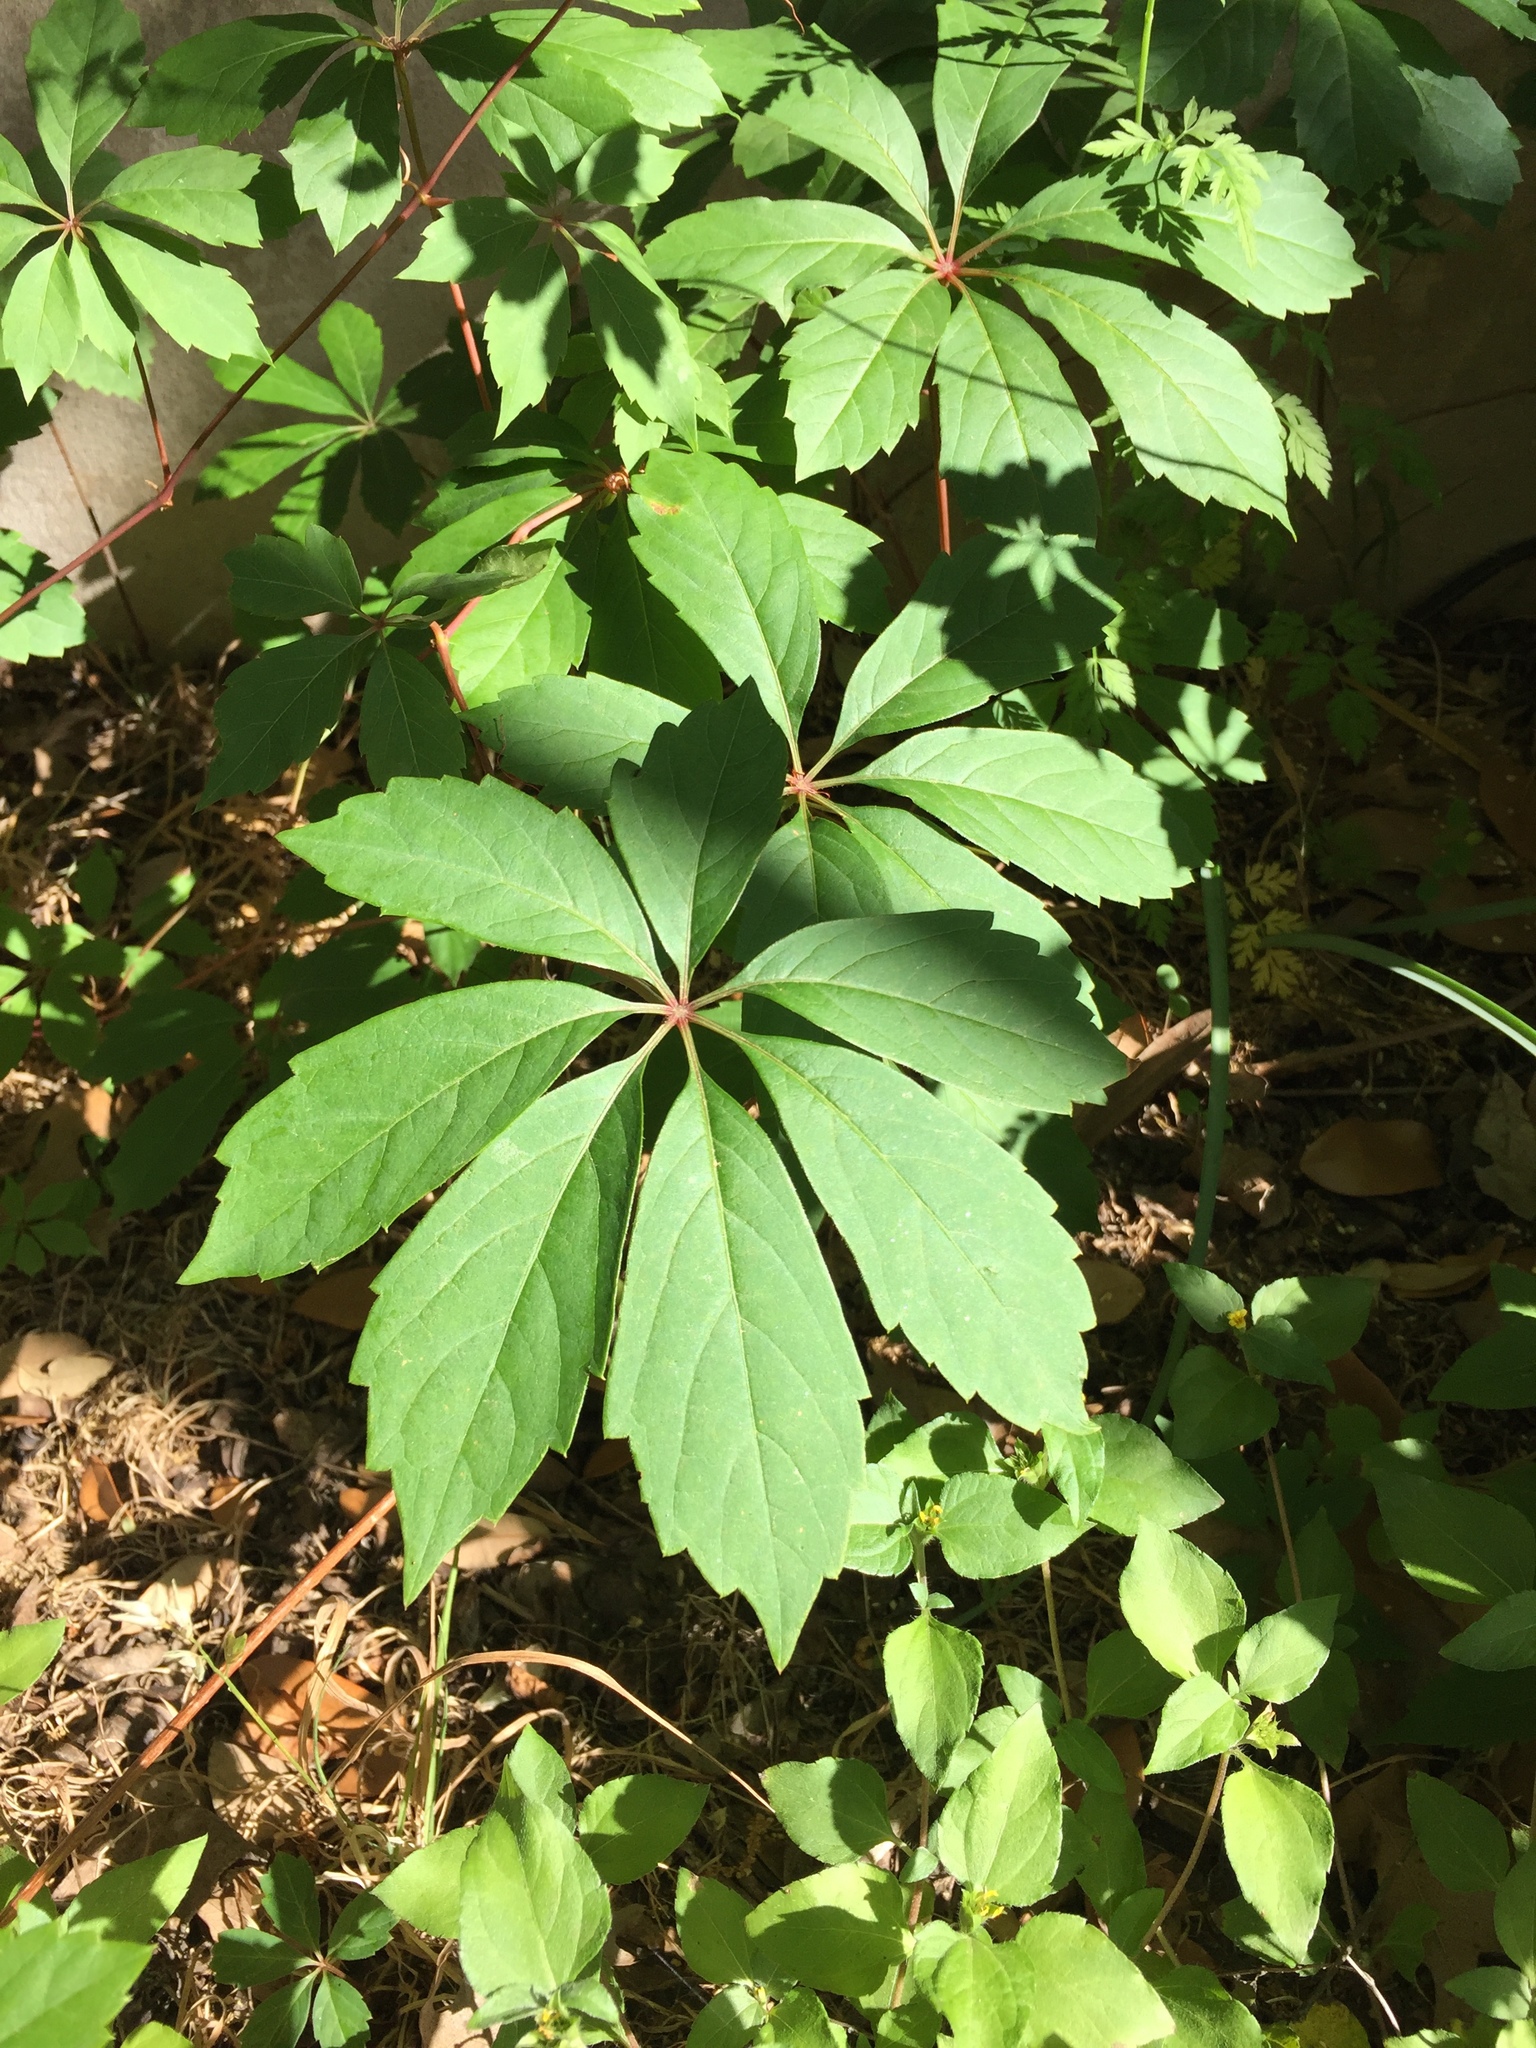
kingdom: Plantae
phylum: Tracheophyta
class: Magnoliopsida
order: Vitales
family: Vitaceae
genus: Parthenocissus
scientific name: Parthenocissus heptaphylla
